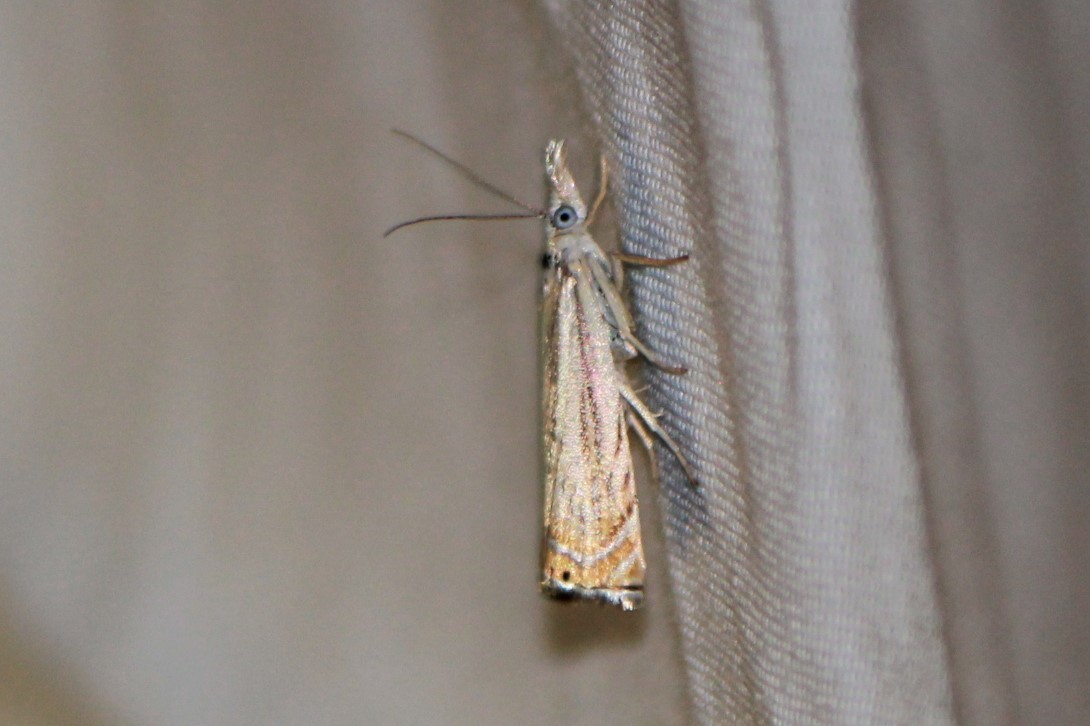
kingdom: Animalia
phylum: Arthropoda
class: Insecta
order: Lepidoptera
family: Crambidae
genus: Chrysoteuchia
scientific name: Chrysoteuchia topiarius
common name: Topiary grass-veneer
